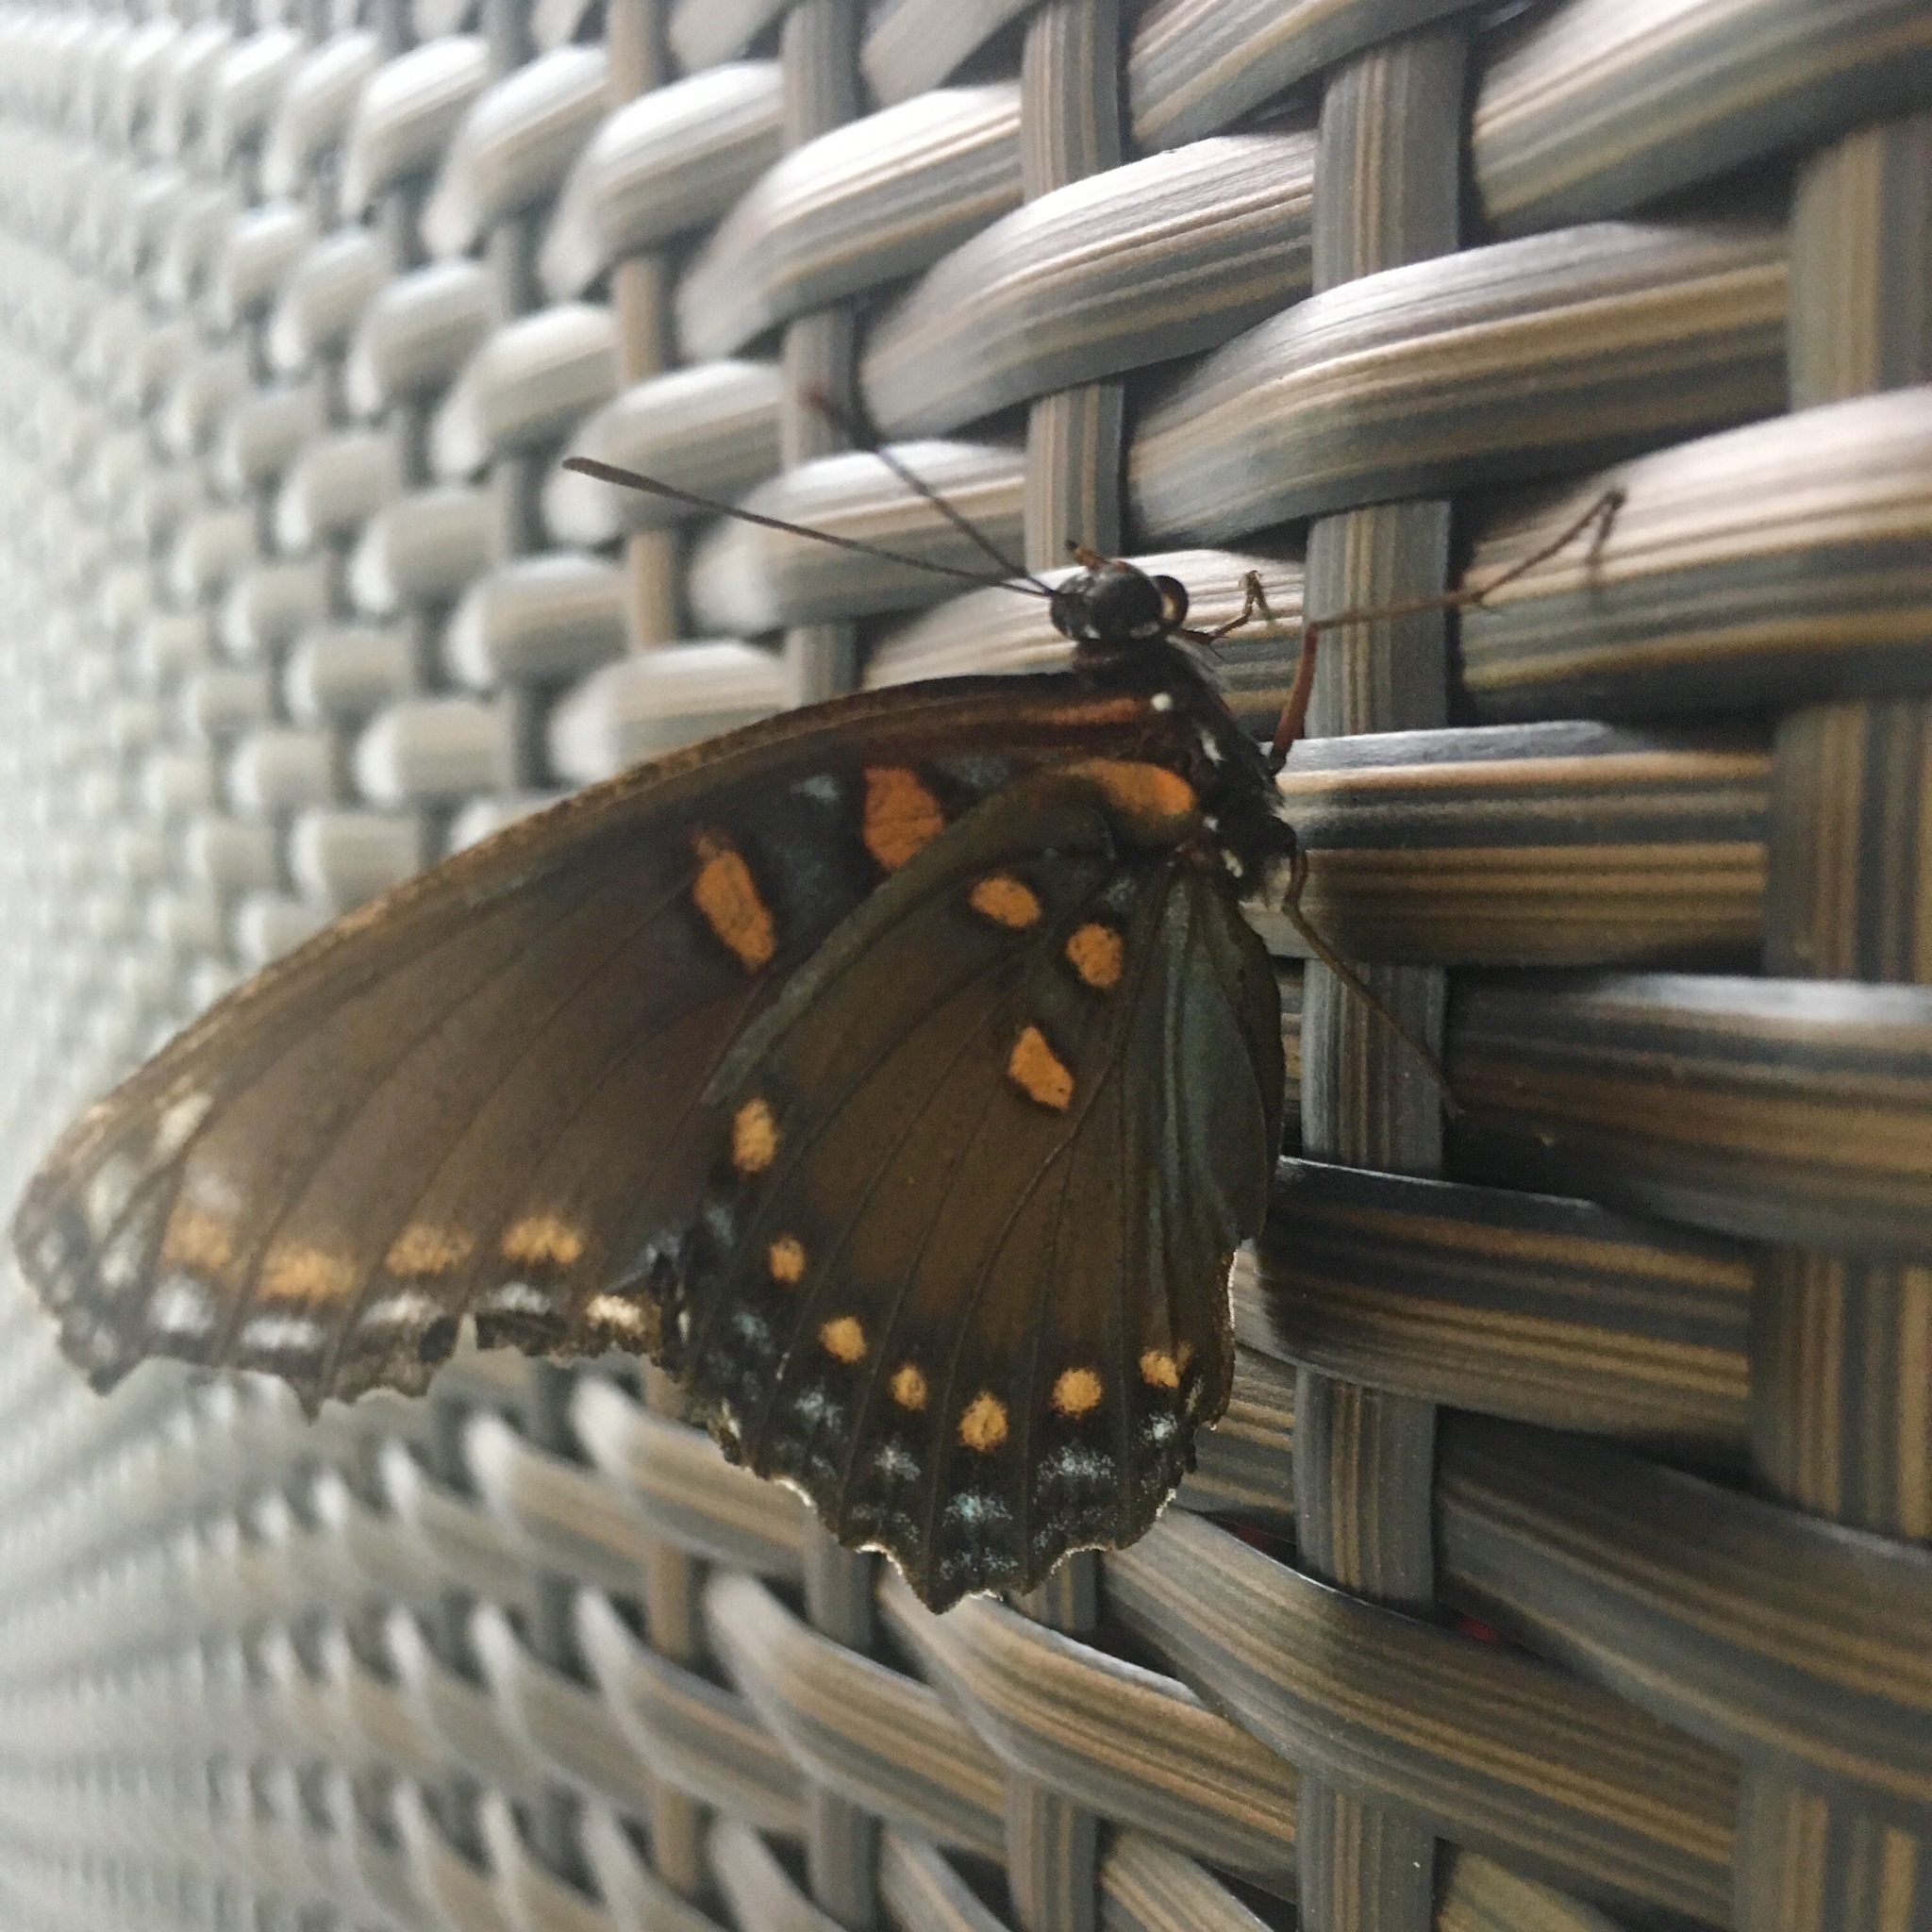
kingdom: Animalia
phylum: Arthropoda
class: Insecta
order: Lepidoptera
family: Nymphalidae
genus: Limenitis
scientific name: Limenitis astyanax
